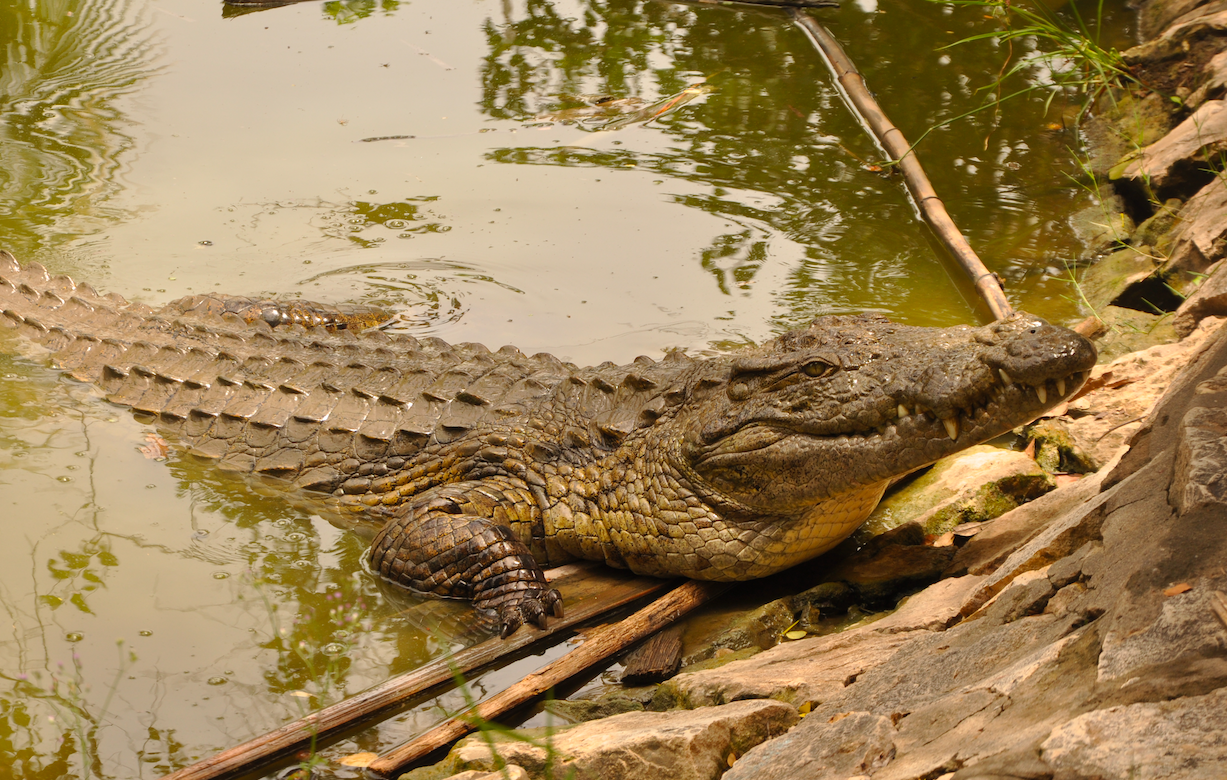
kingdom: Animalia
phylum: Chordata
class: Crocodylia
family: Crocodylidae
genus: Crocodylus
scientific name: Crocodylus niloticus
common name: Nile crocodile
